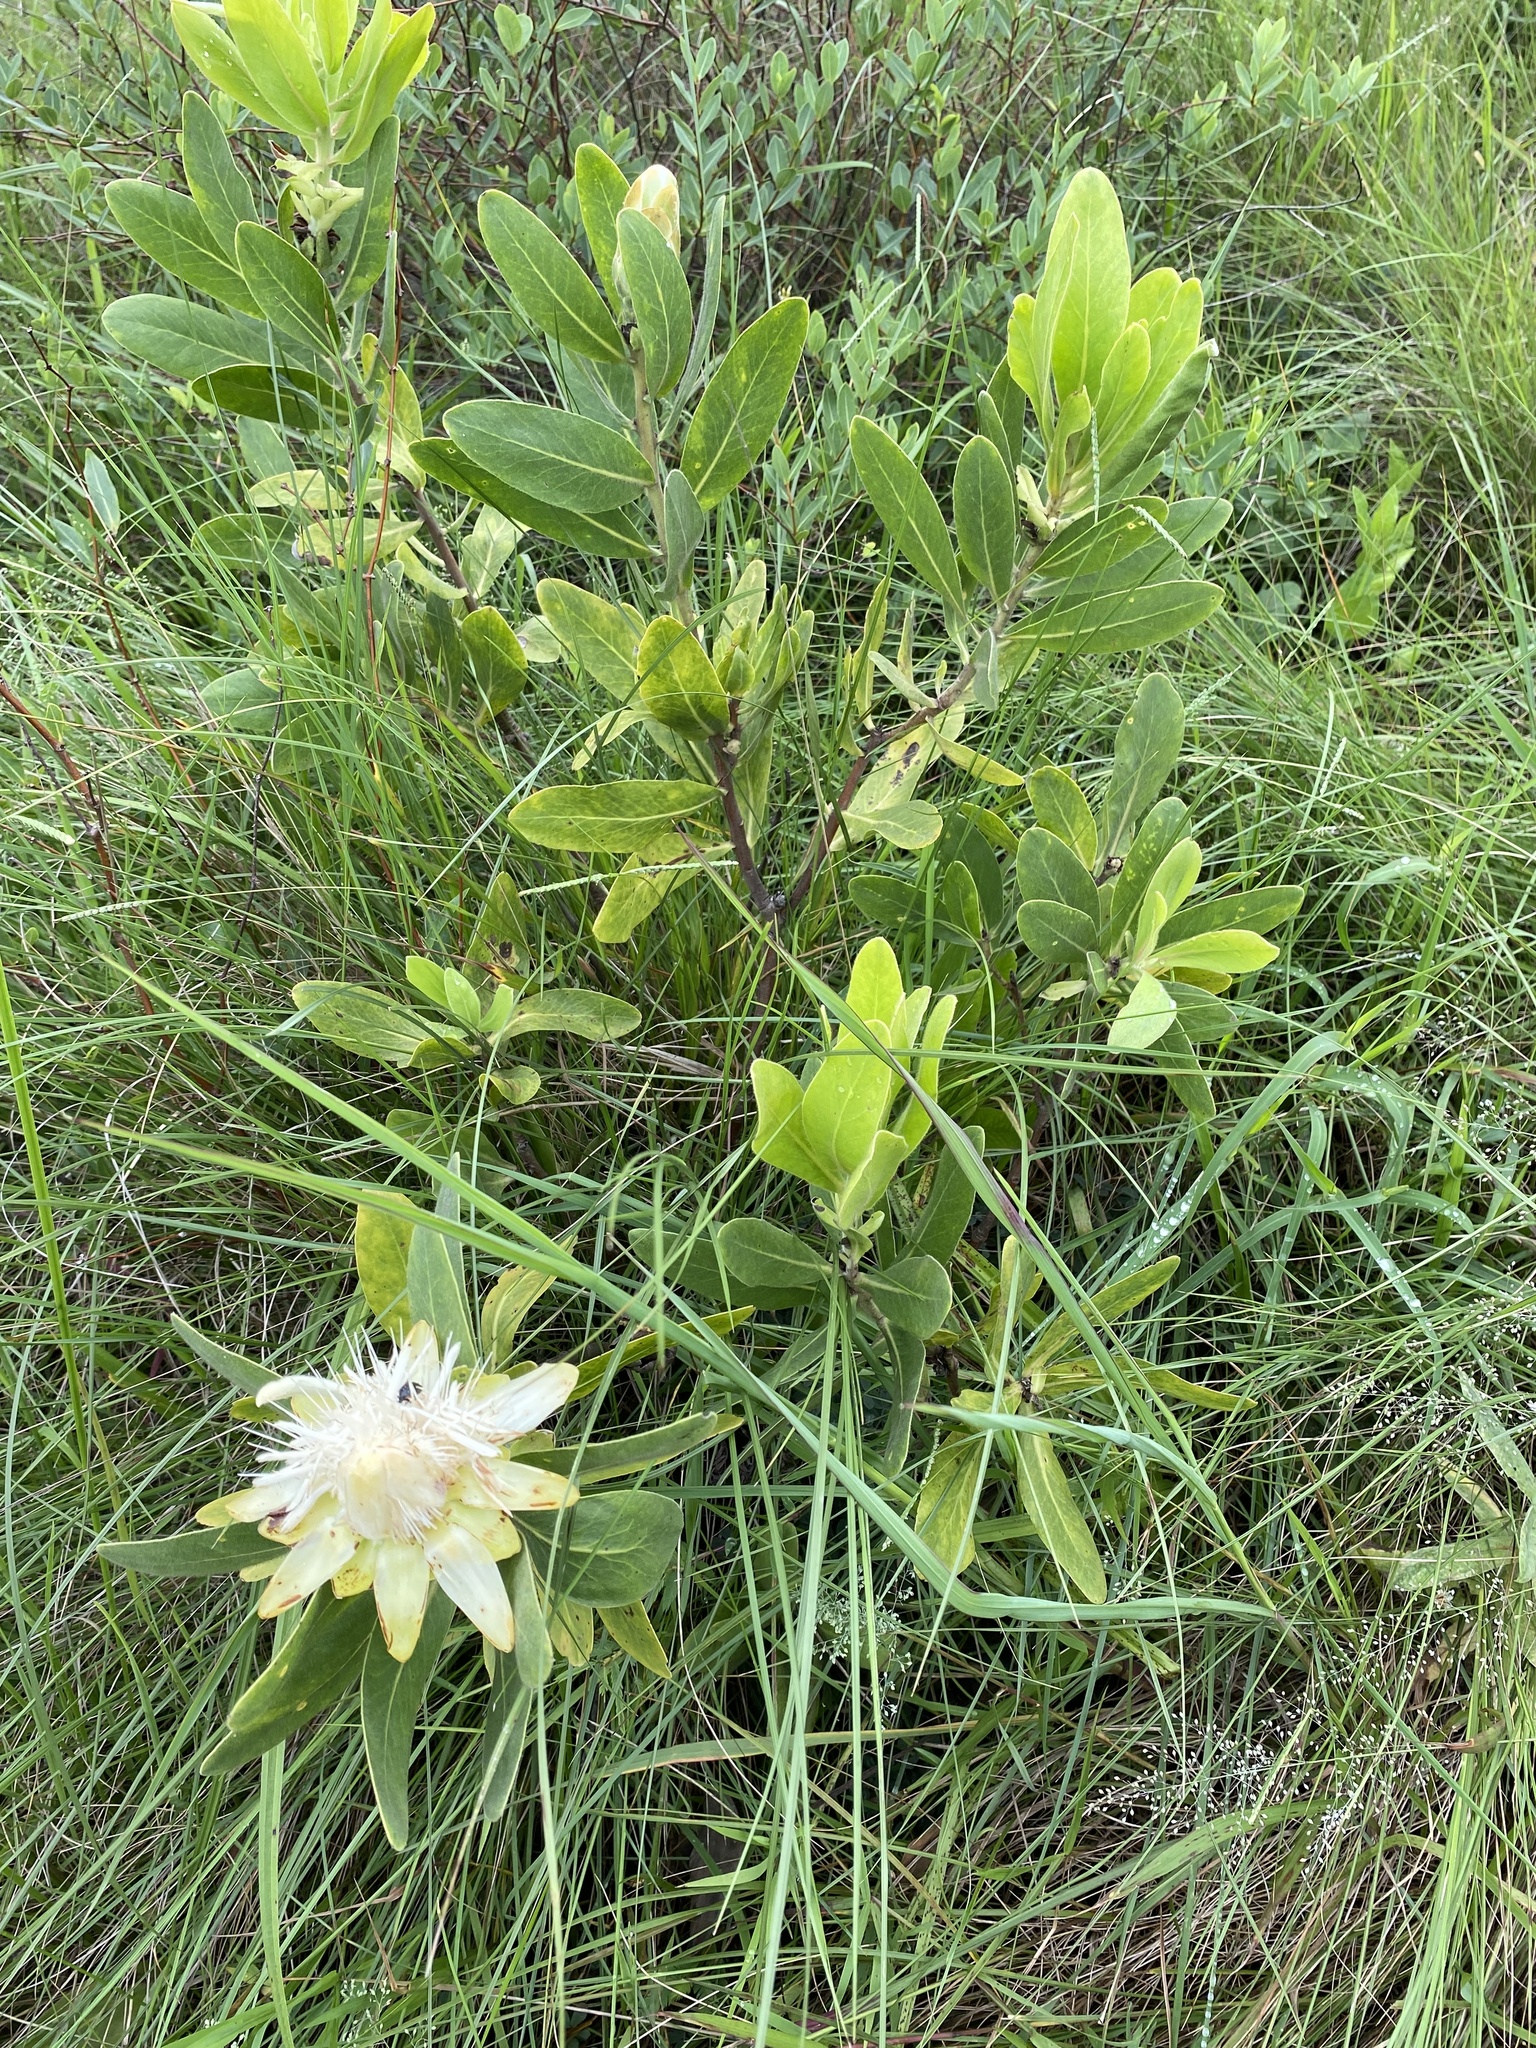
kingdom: Plantae
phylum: Tracheophyta
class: Magnoliopsida
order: Proteales
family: Proteaceae
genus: Protea
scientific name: Protea welwitschii
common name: Cluster-head protea
